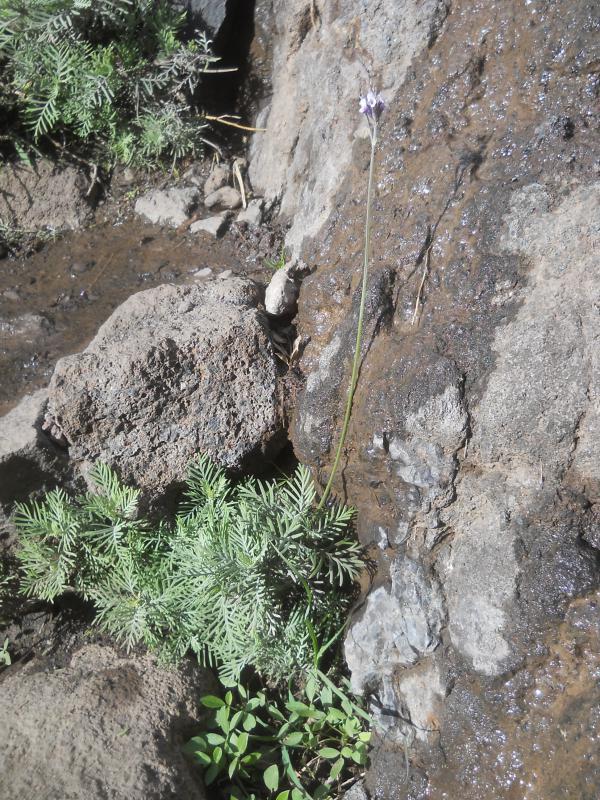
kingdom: Plantae
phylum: Tracheophyta
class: Magnoliopsida
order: Lamiales
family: Lamiaceae
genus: Lavandula
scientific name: Lavandula buchii
